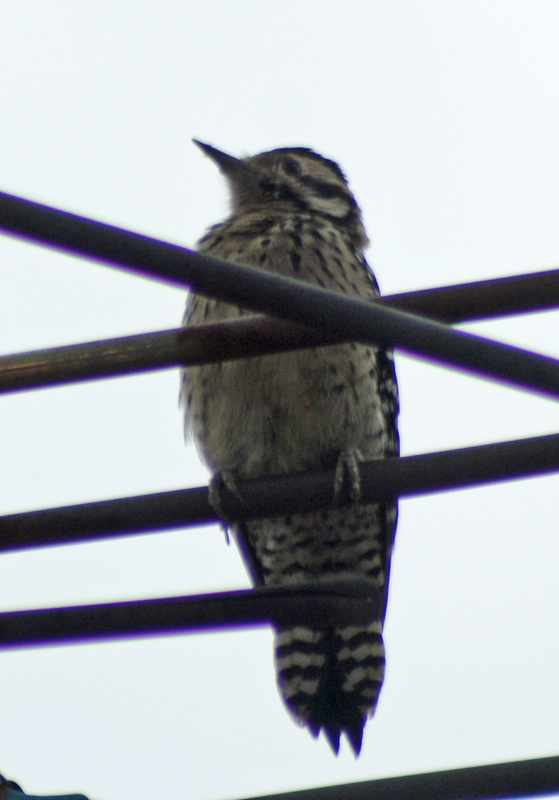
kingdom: Animalia
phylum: Chordata
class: Aves
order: Piciformes
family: Picidae
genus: Dryobates
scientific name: Dryobates scalaris
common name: Ladder-backed woodpecker
